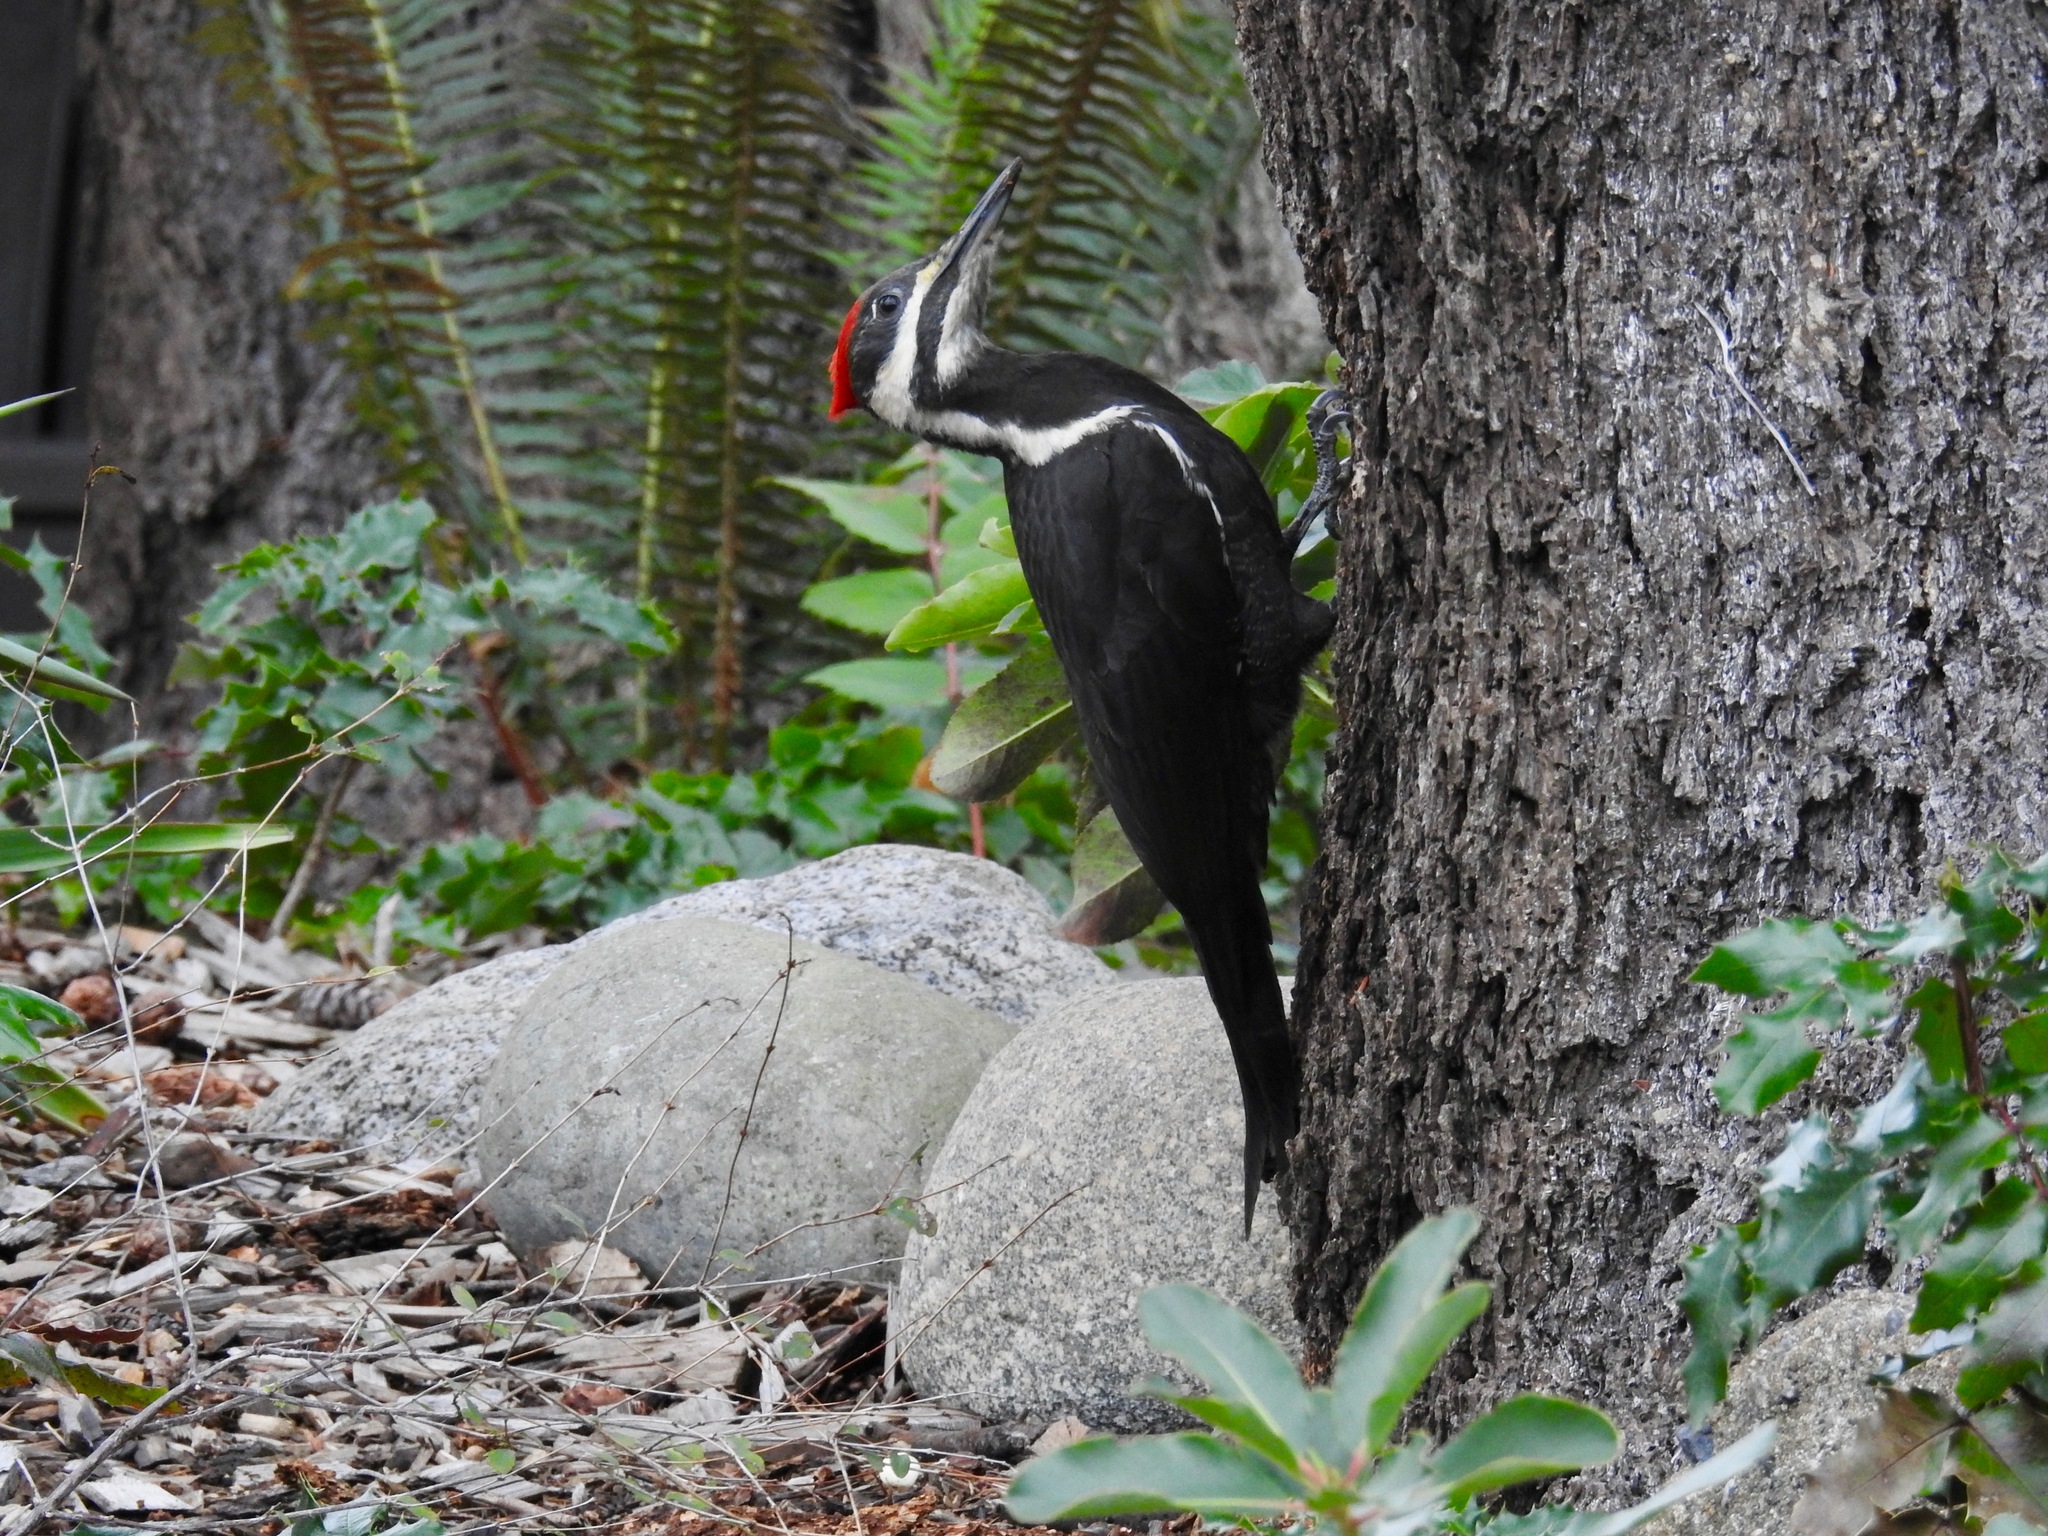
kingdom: Animalia
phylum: Chordata
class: Aves
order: Piciformes
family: Picidae
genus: Dryocopus
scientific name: Dryocopus pileatus
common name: Pileated woodpecker
